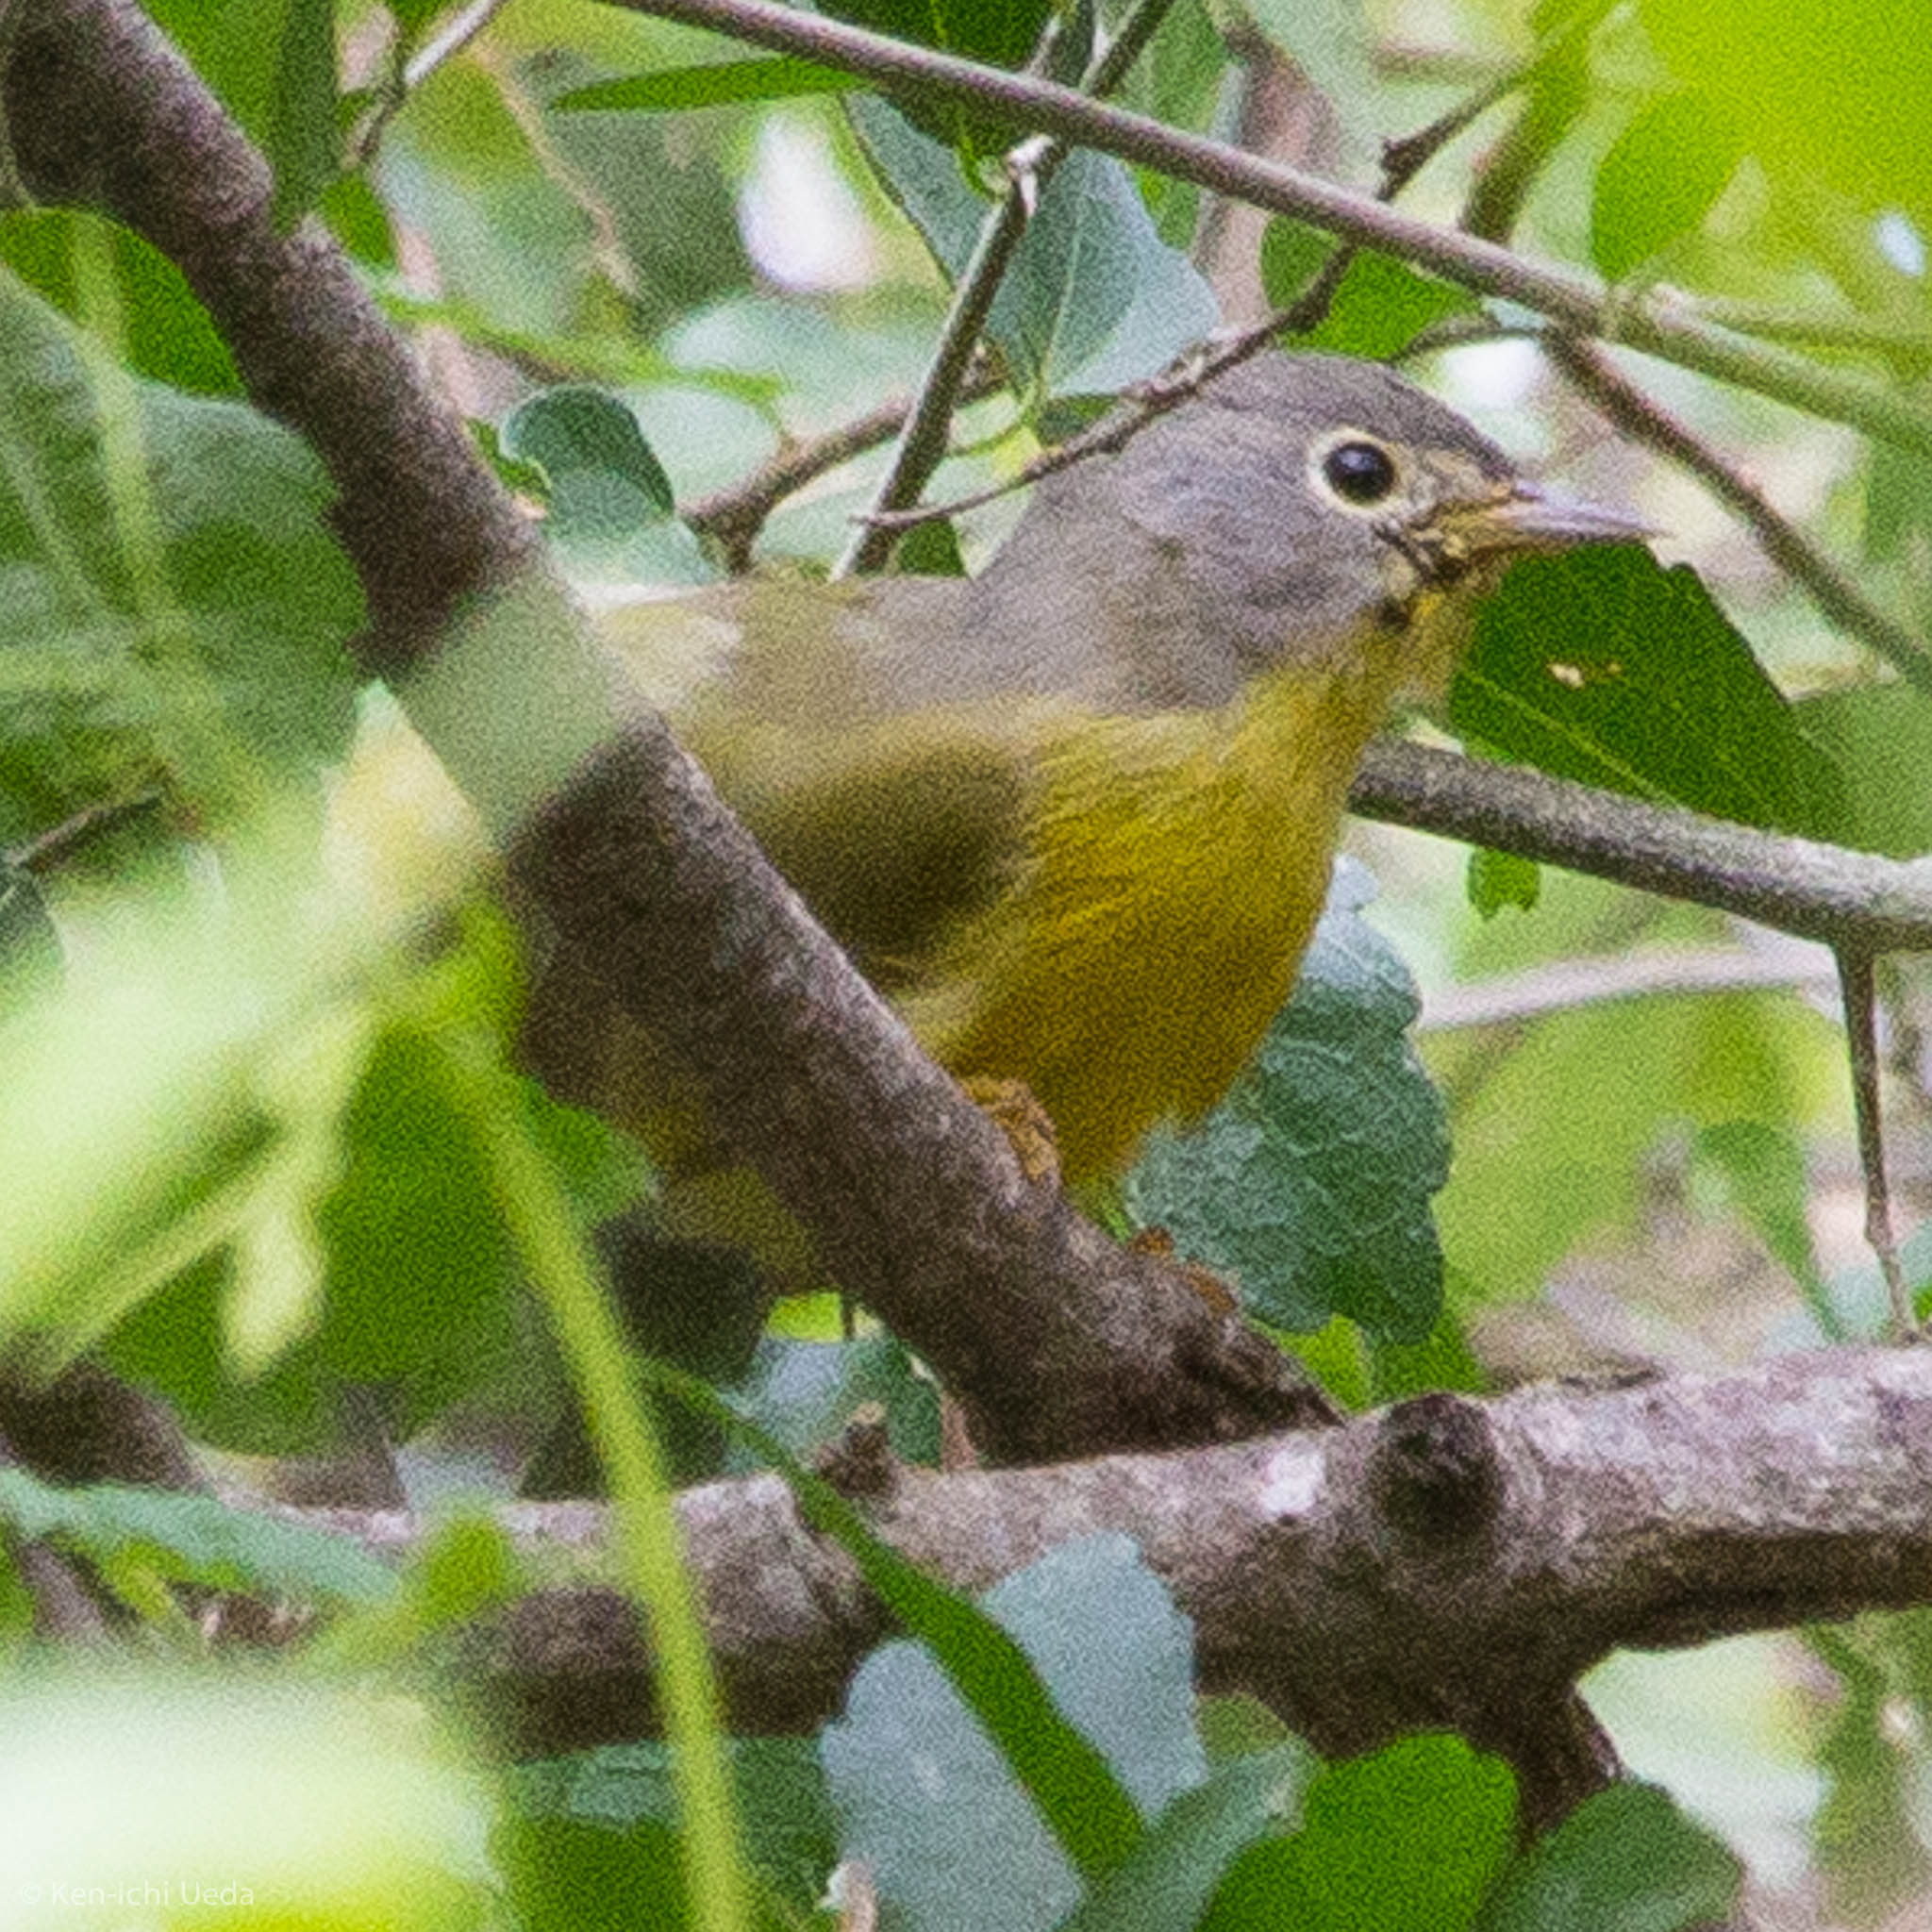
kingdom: Animalia
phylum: Chordata
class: Aves
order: Passeriformes
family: Parulidae
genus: Leiothlypis
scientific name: Leiothlypis ruficapilla
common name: Nashville warbler
